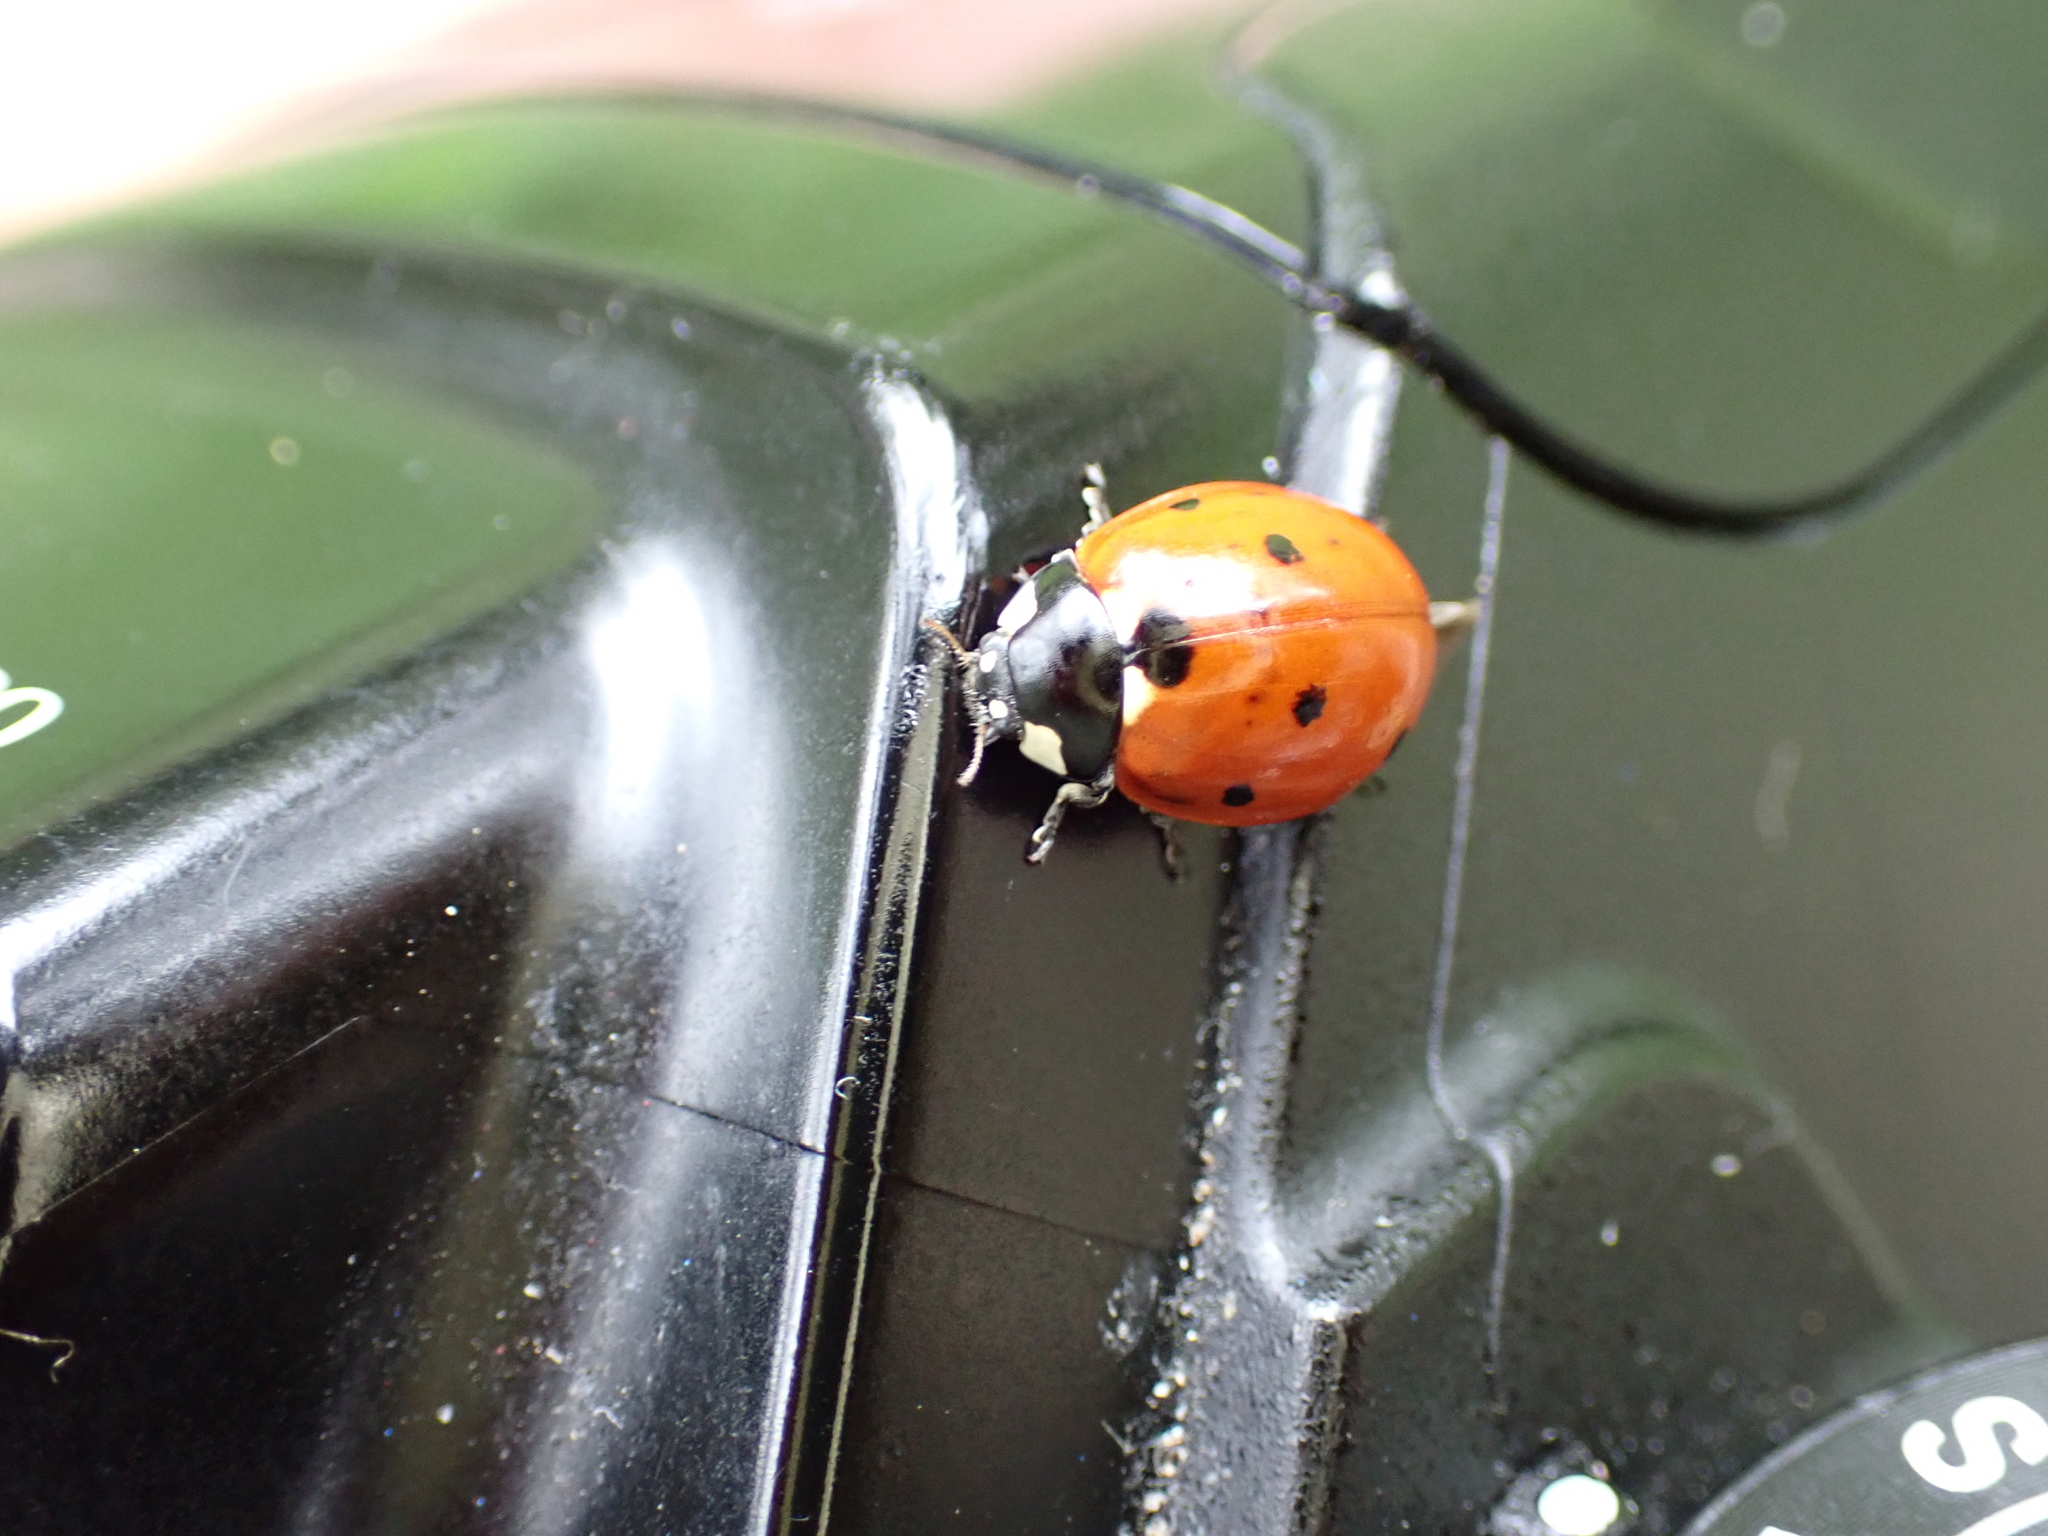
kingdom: Animalia
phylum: Arthropoda
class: Insecta
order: Coleoptera
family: Coccinellidae
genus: Coccinella
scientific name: Coccinella septempunctata
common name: Sevenspotted lady beetle
